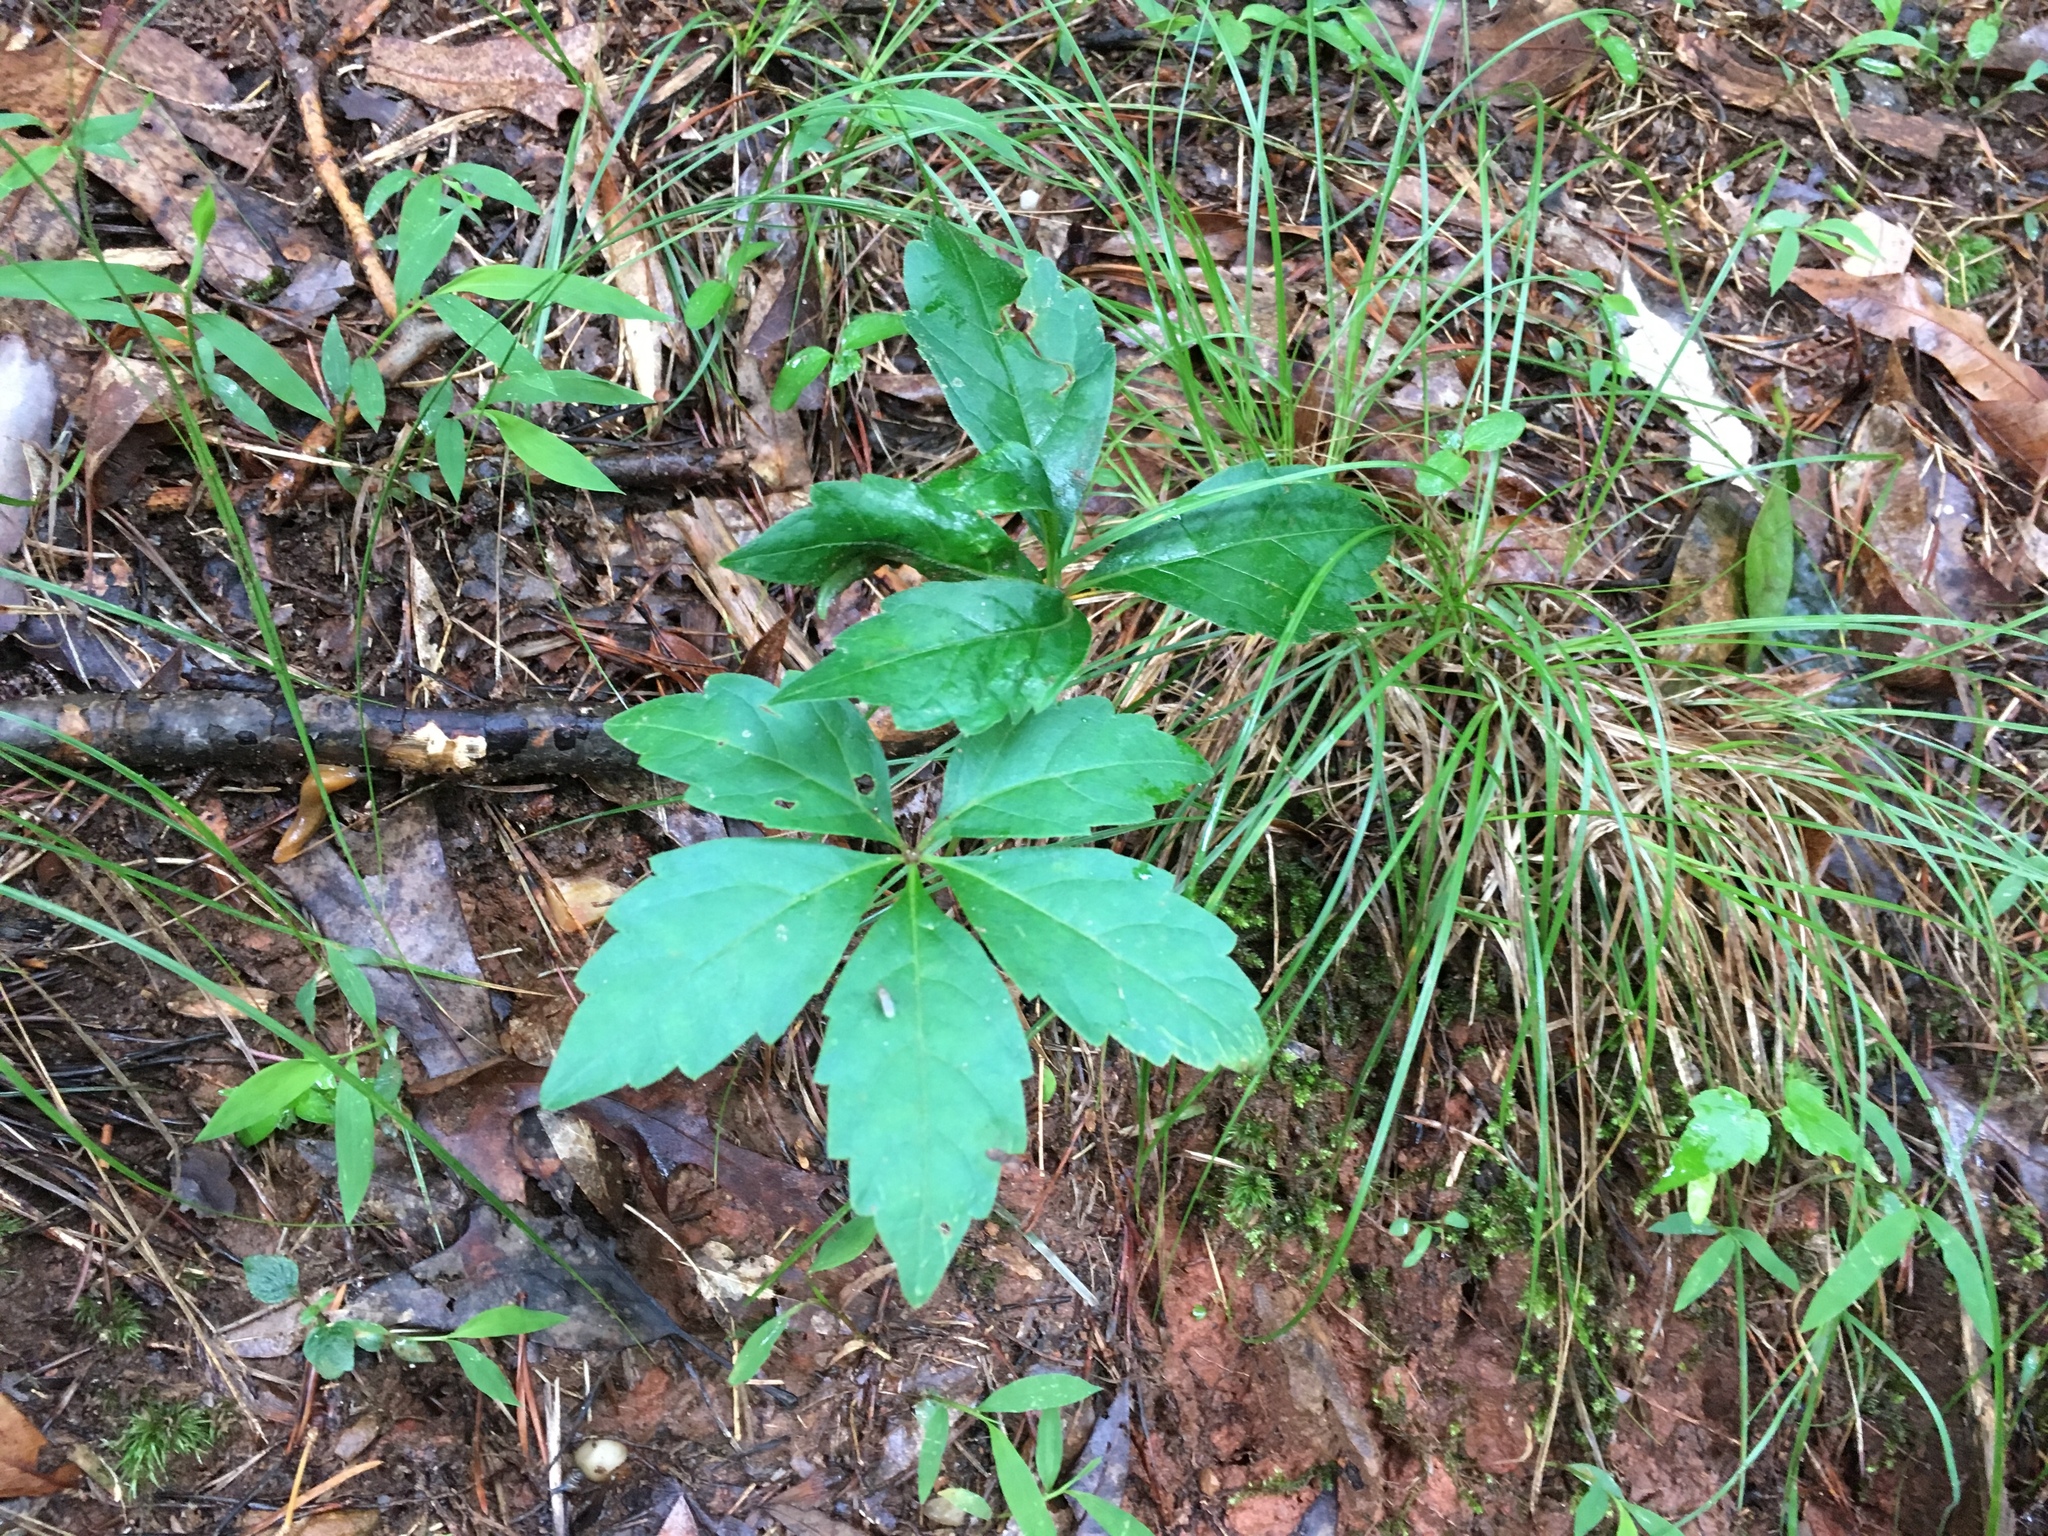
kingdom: Plantae
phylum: Tracheophyta
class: Magnoliopsida
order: Vitales
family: Vitaceae
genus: Parthenocissus
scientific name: Parthenocissus quinquefolia
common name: Virginia-creeper
